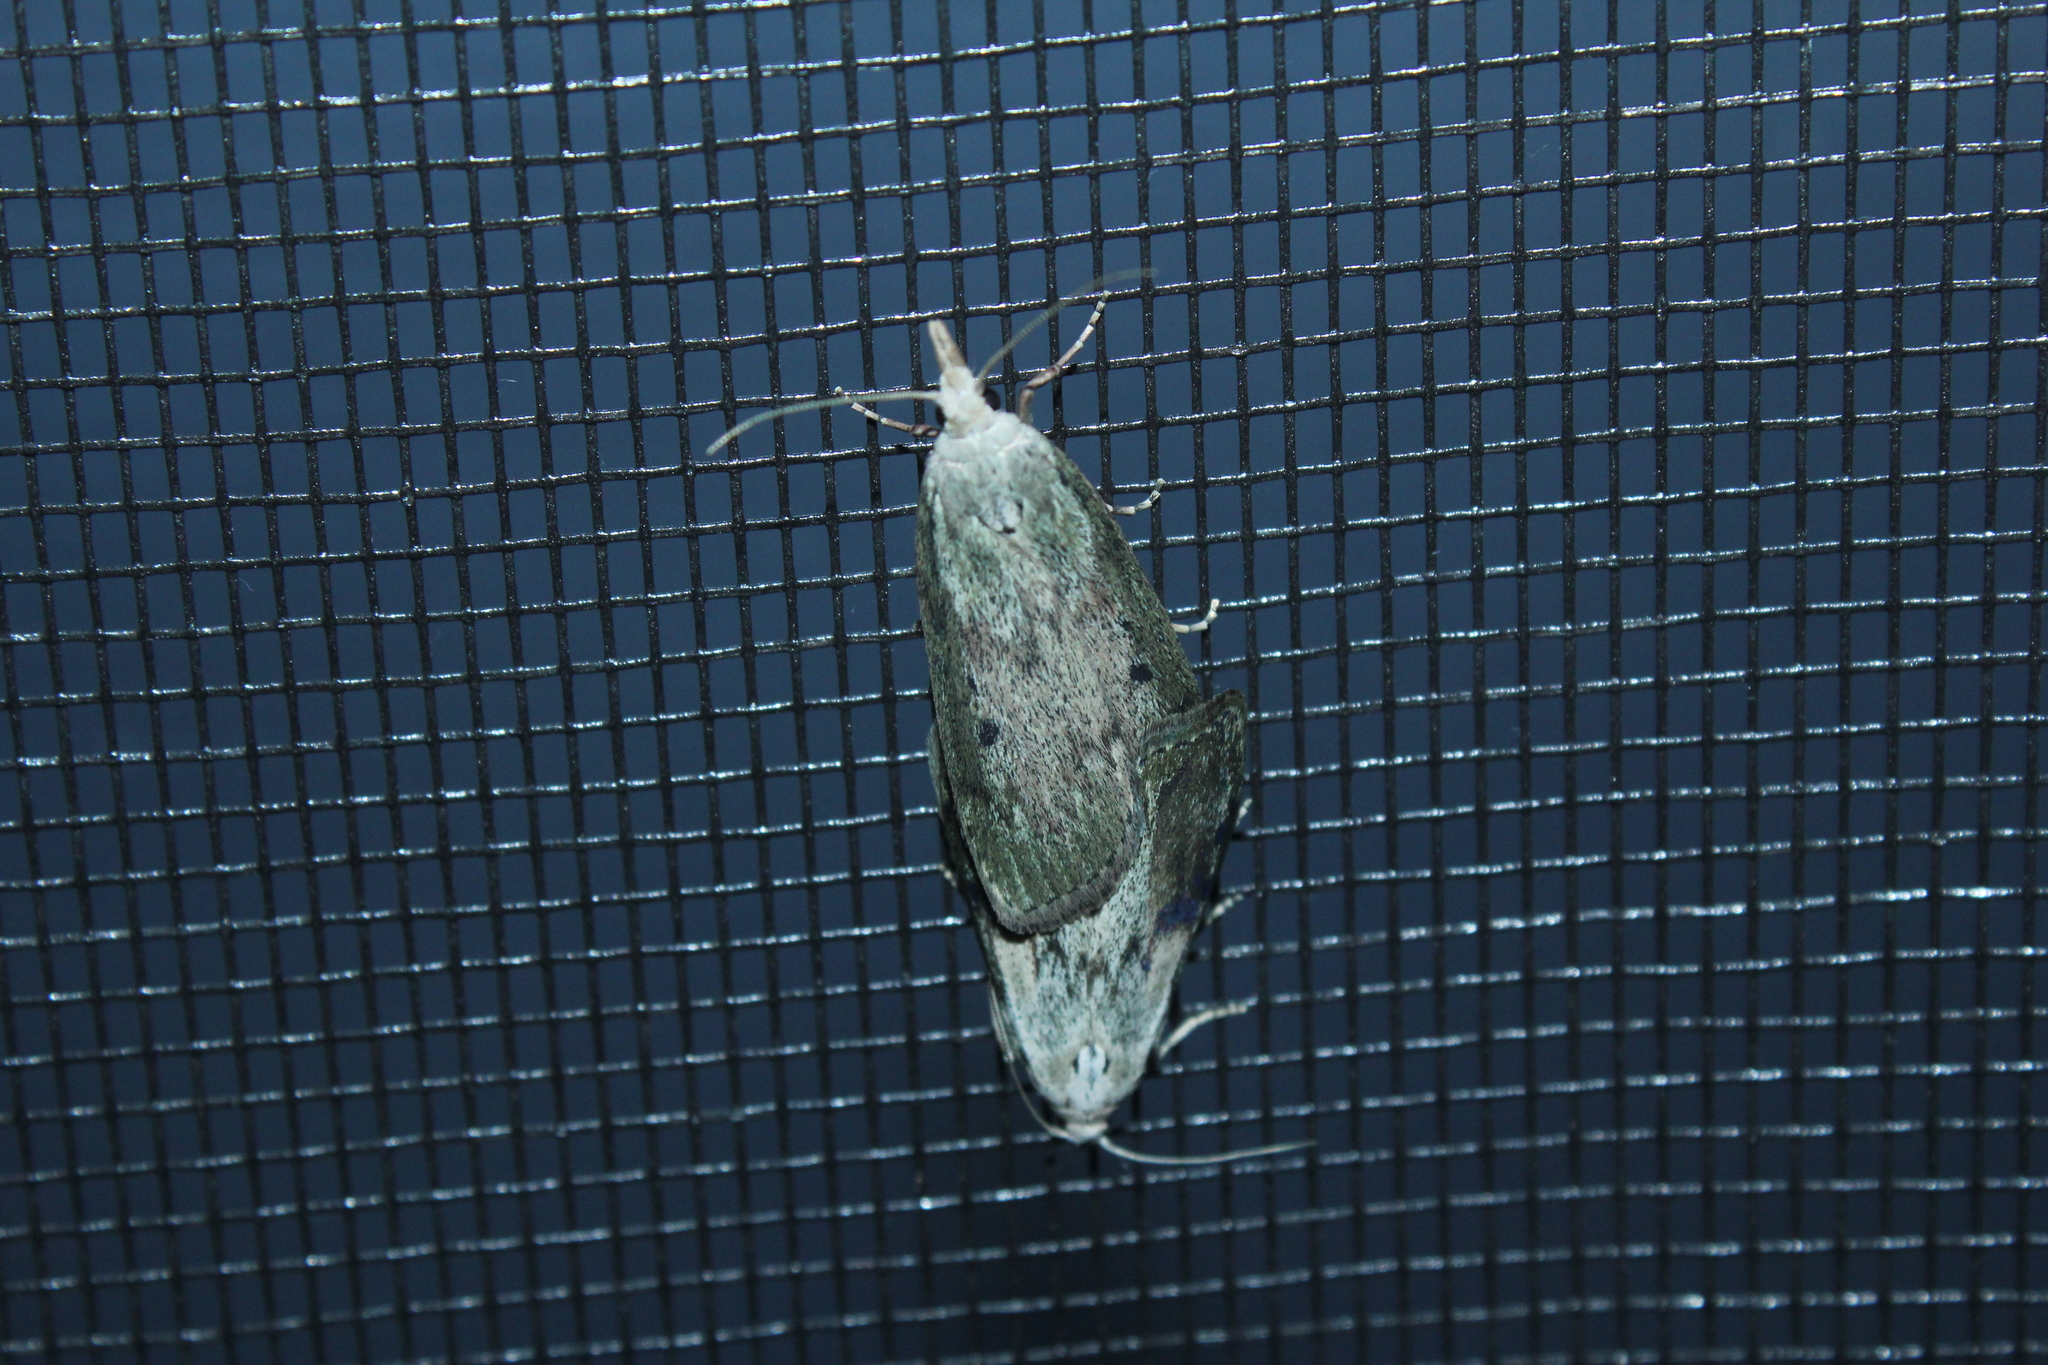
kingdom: Animalia
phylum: Arthropoda
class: Insecta
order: Lepidoptera
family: Pyralidae
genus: Aphomia
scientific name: Aphomia sociella
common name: Bee moth
